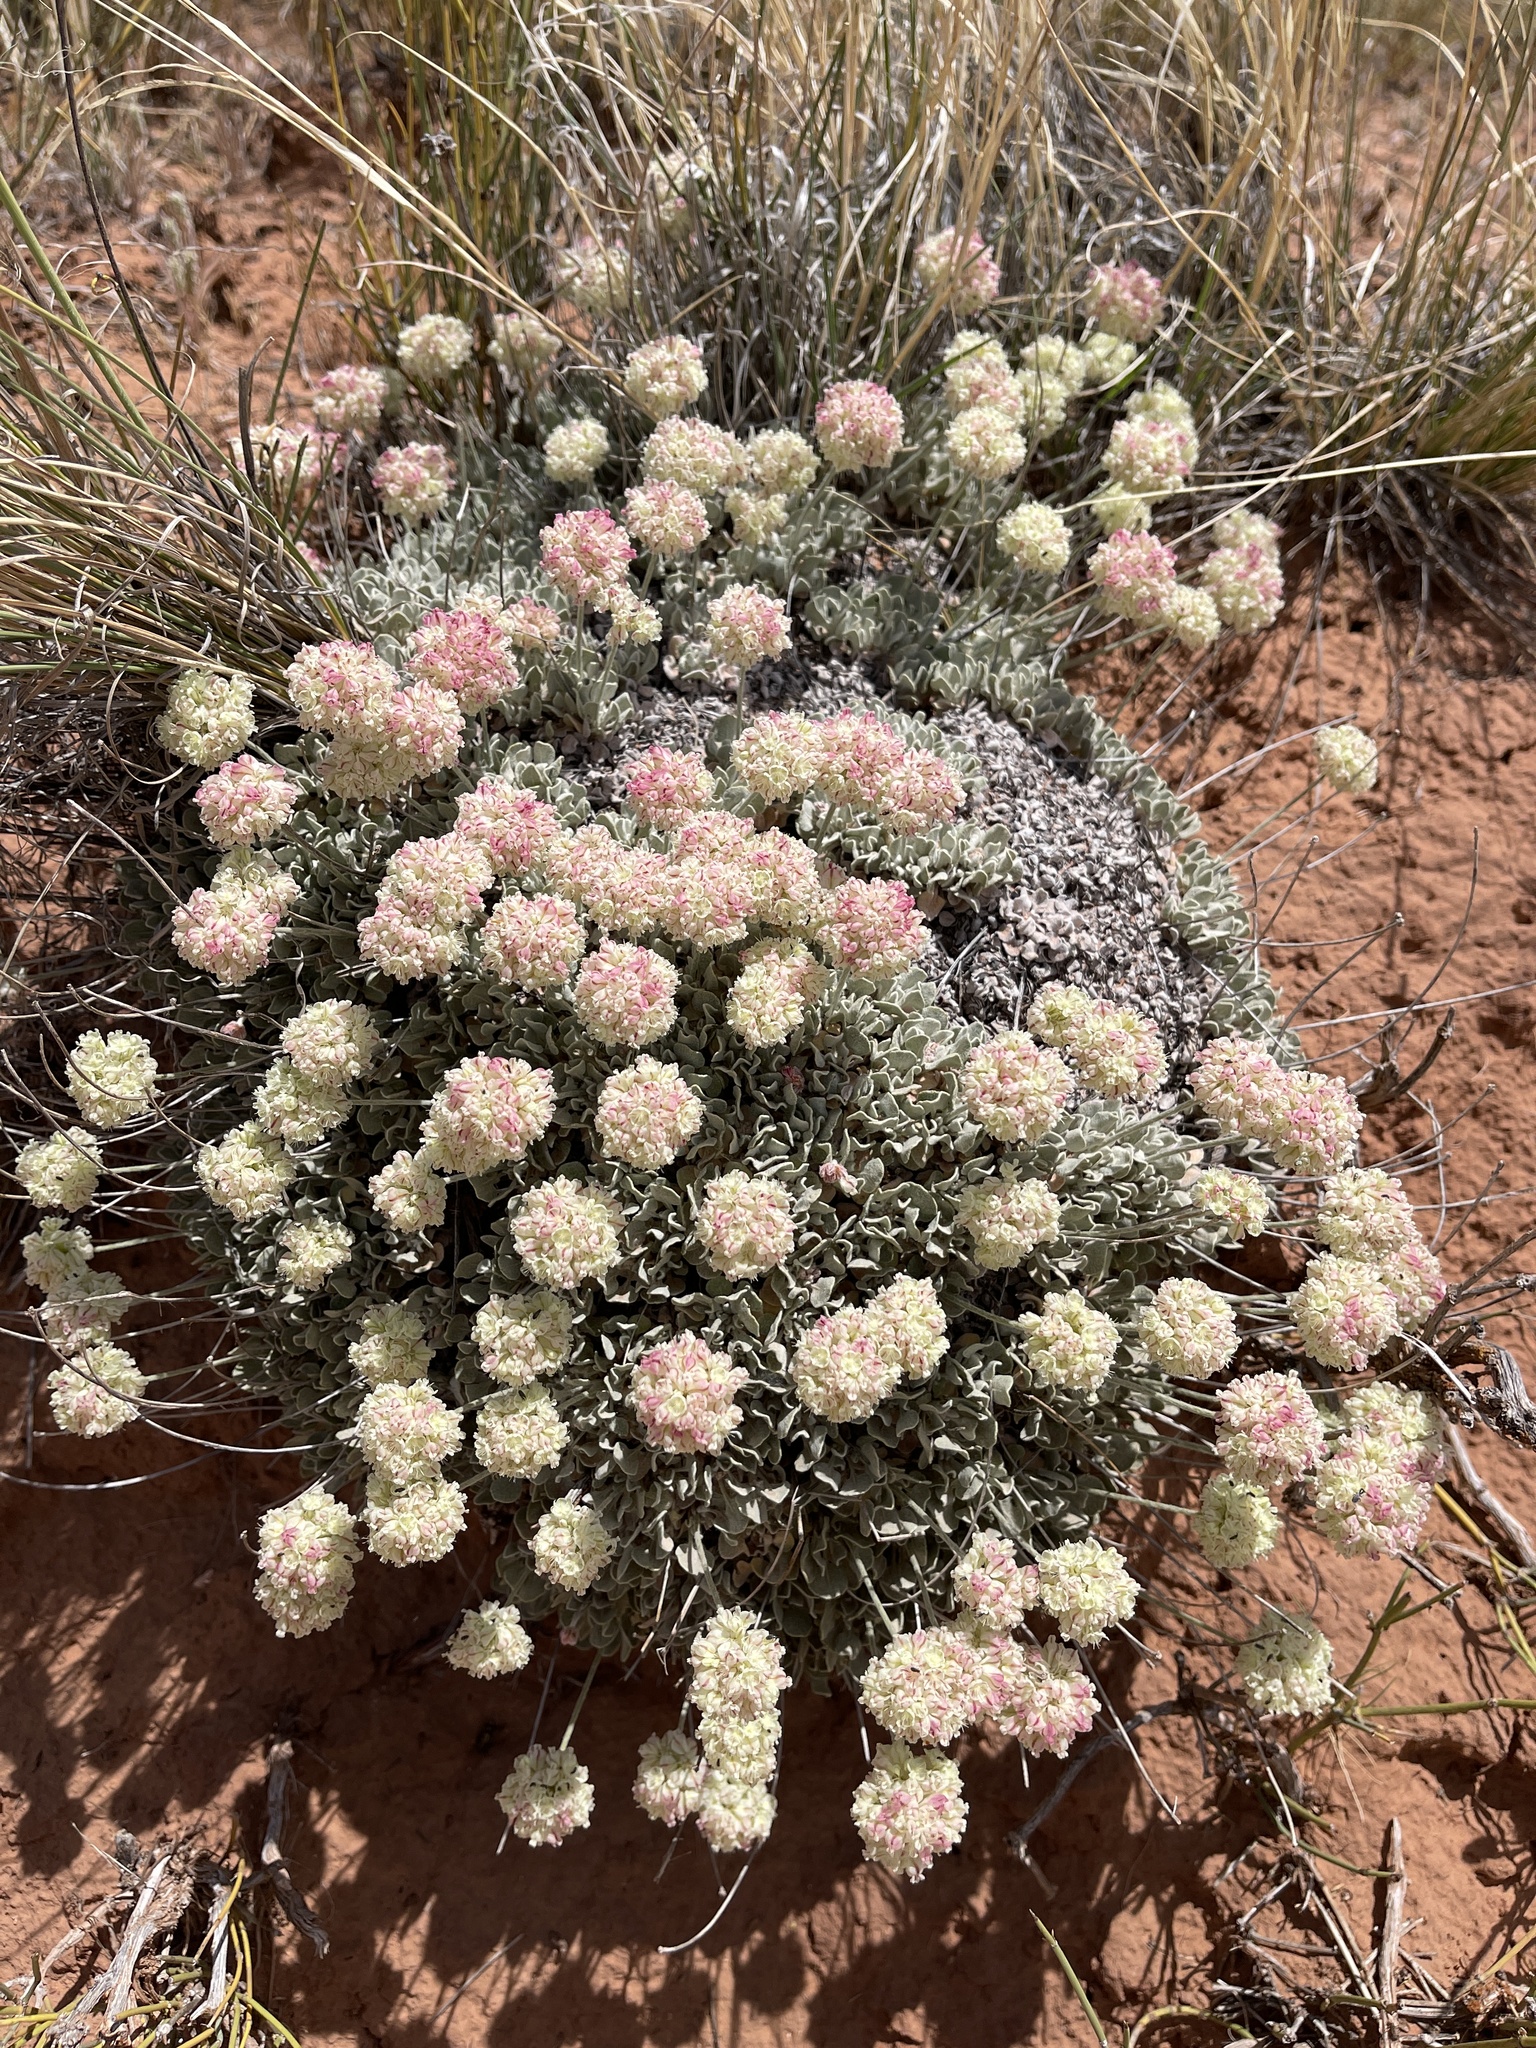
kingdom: Plantae
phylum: Tracheophyta
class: Magnoliopsida
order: Caryophyllales
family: Polygonaceae
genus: Eriogonum
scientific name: Eriogonum ovalifolium
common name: Cushion buckwheat
